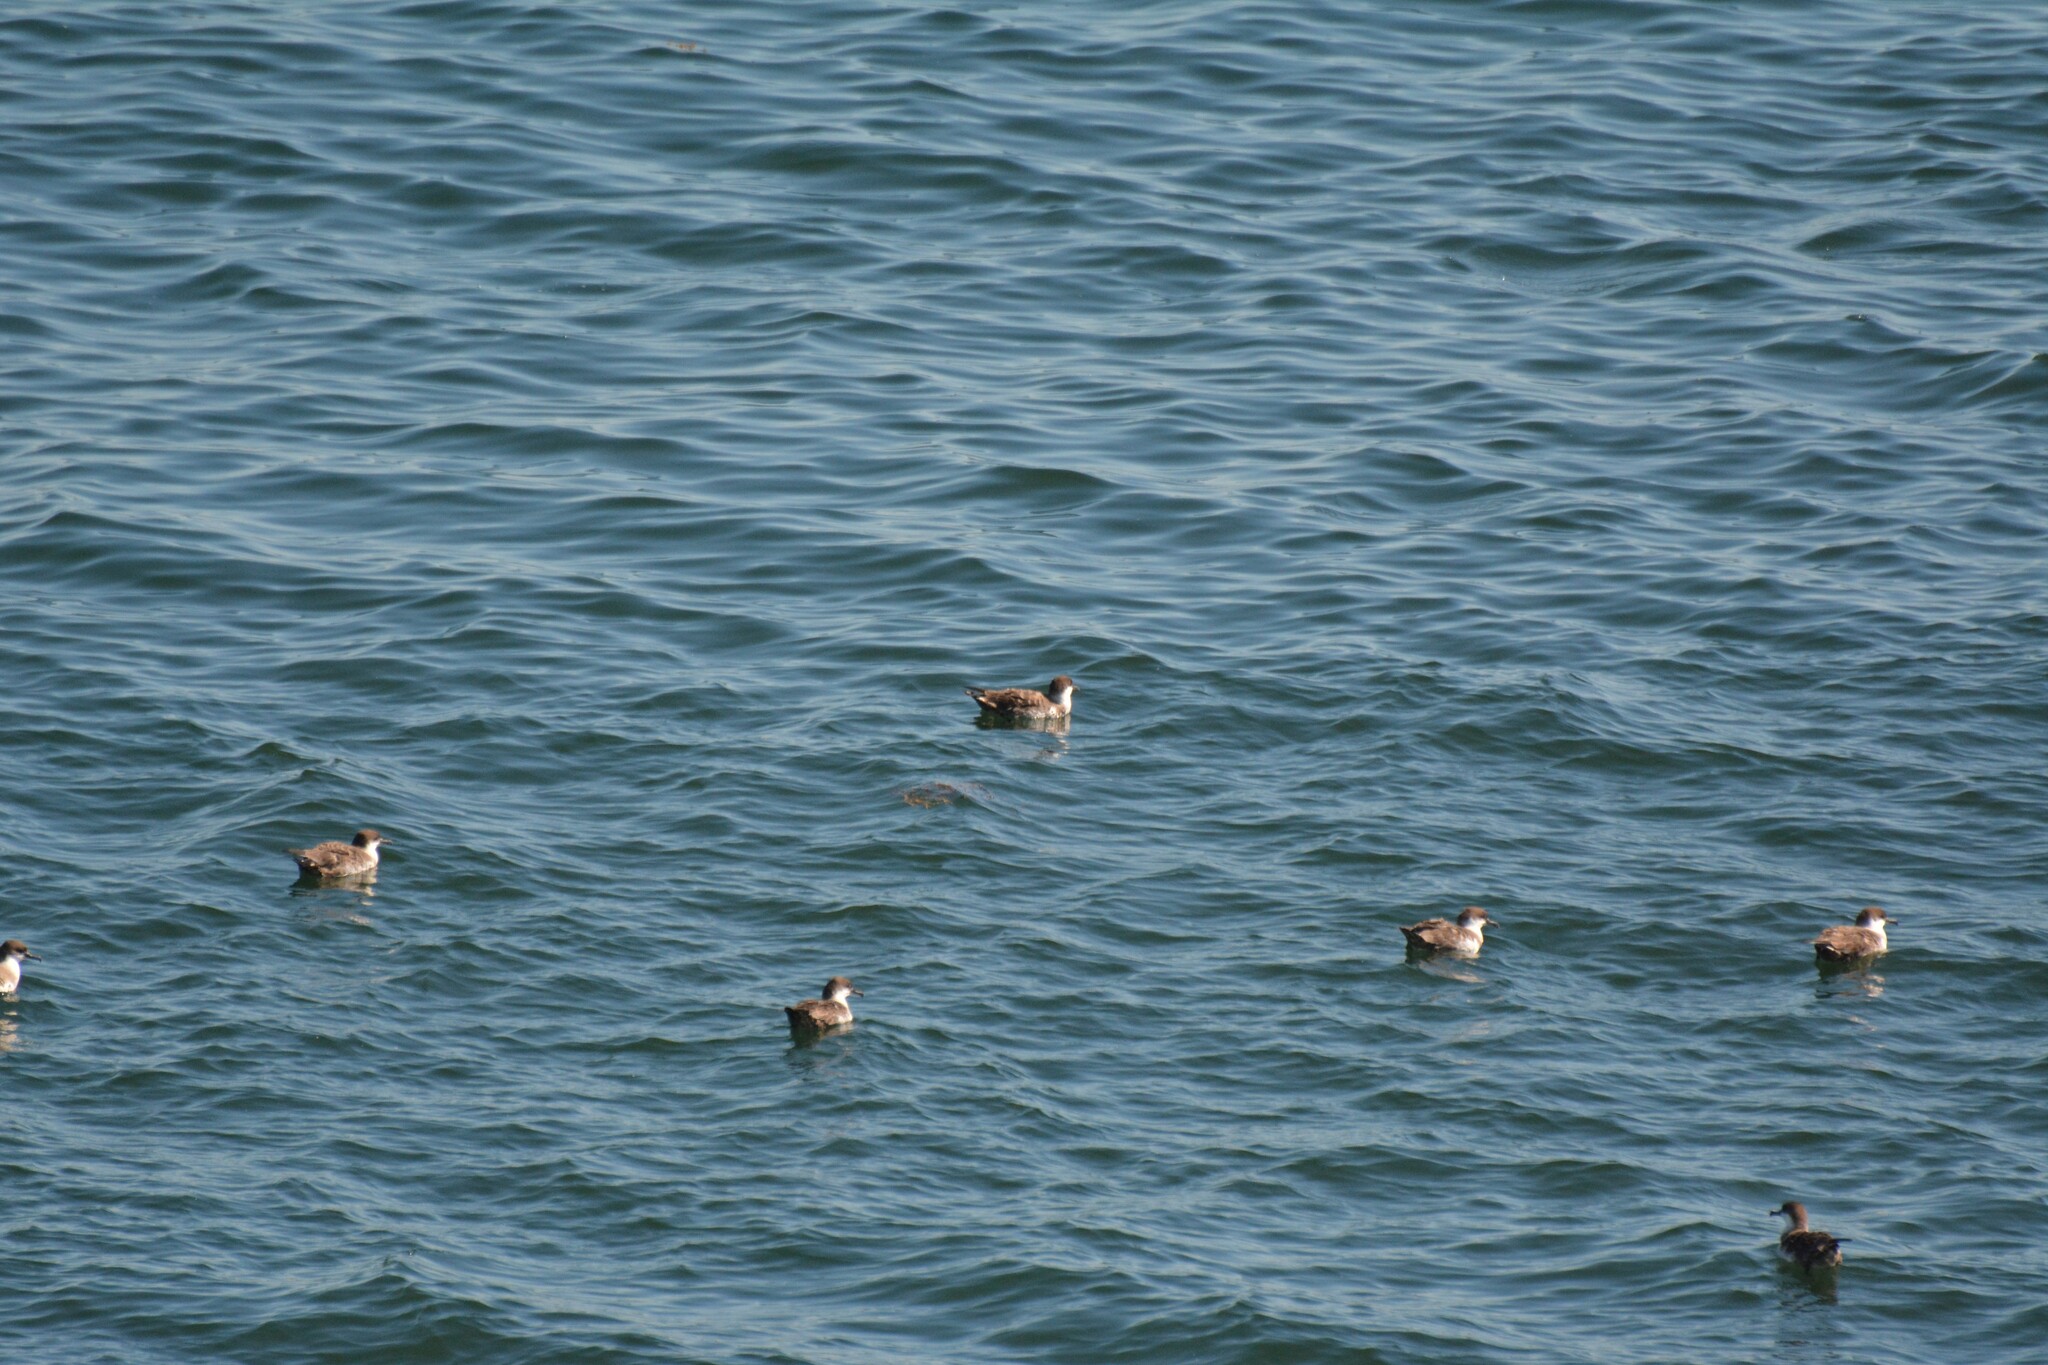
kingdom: Animalia
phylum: Chordata
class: Aves
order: Procellariiformes
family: Procellariidae
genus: Puffinus
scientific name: Puffinus gravis
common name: Great shearwater
